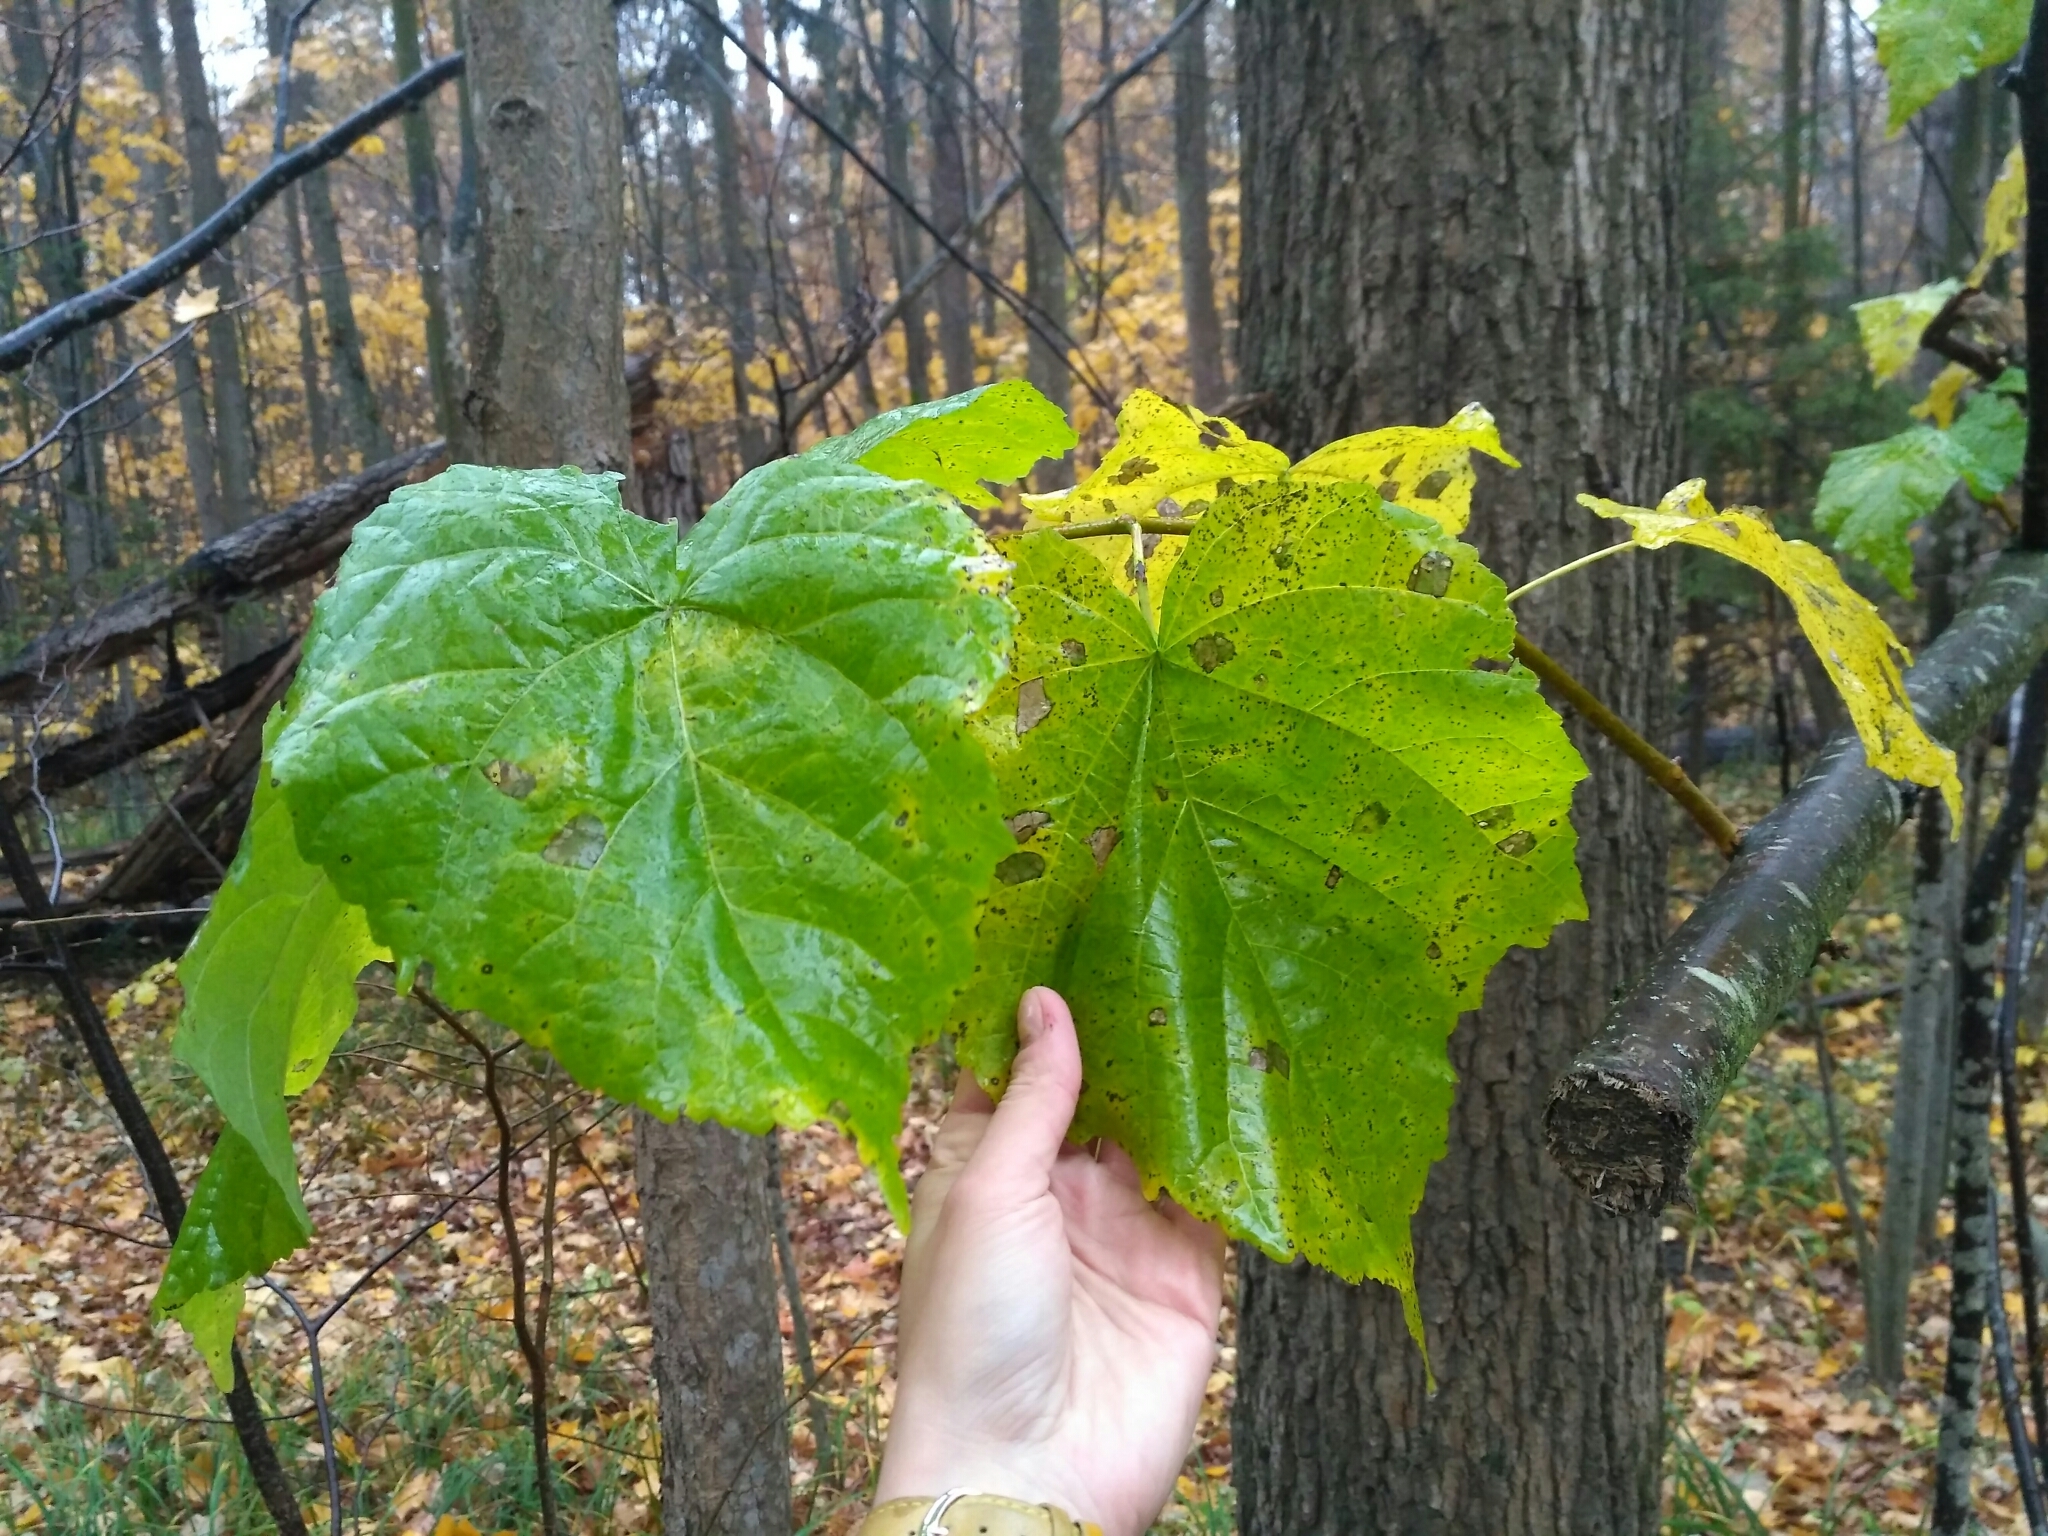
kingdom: Plantae
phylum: Tracheophyta
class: Magnoliopsida
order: Malvales
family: Malvaceae
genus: Tilia
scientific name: Tilia cordata
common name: Small-leaved lime
